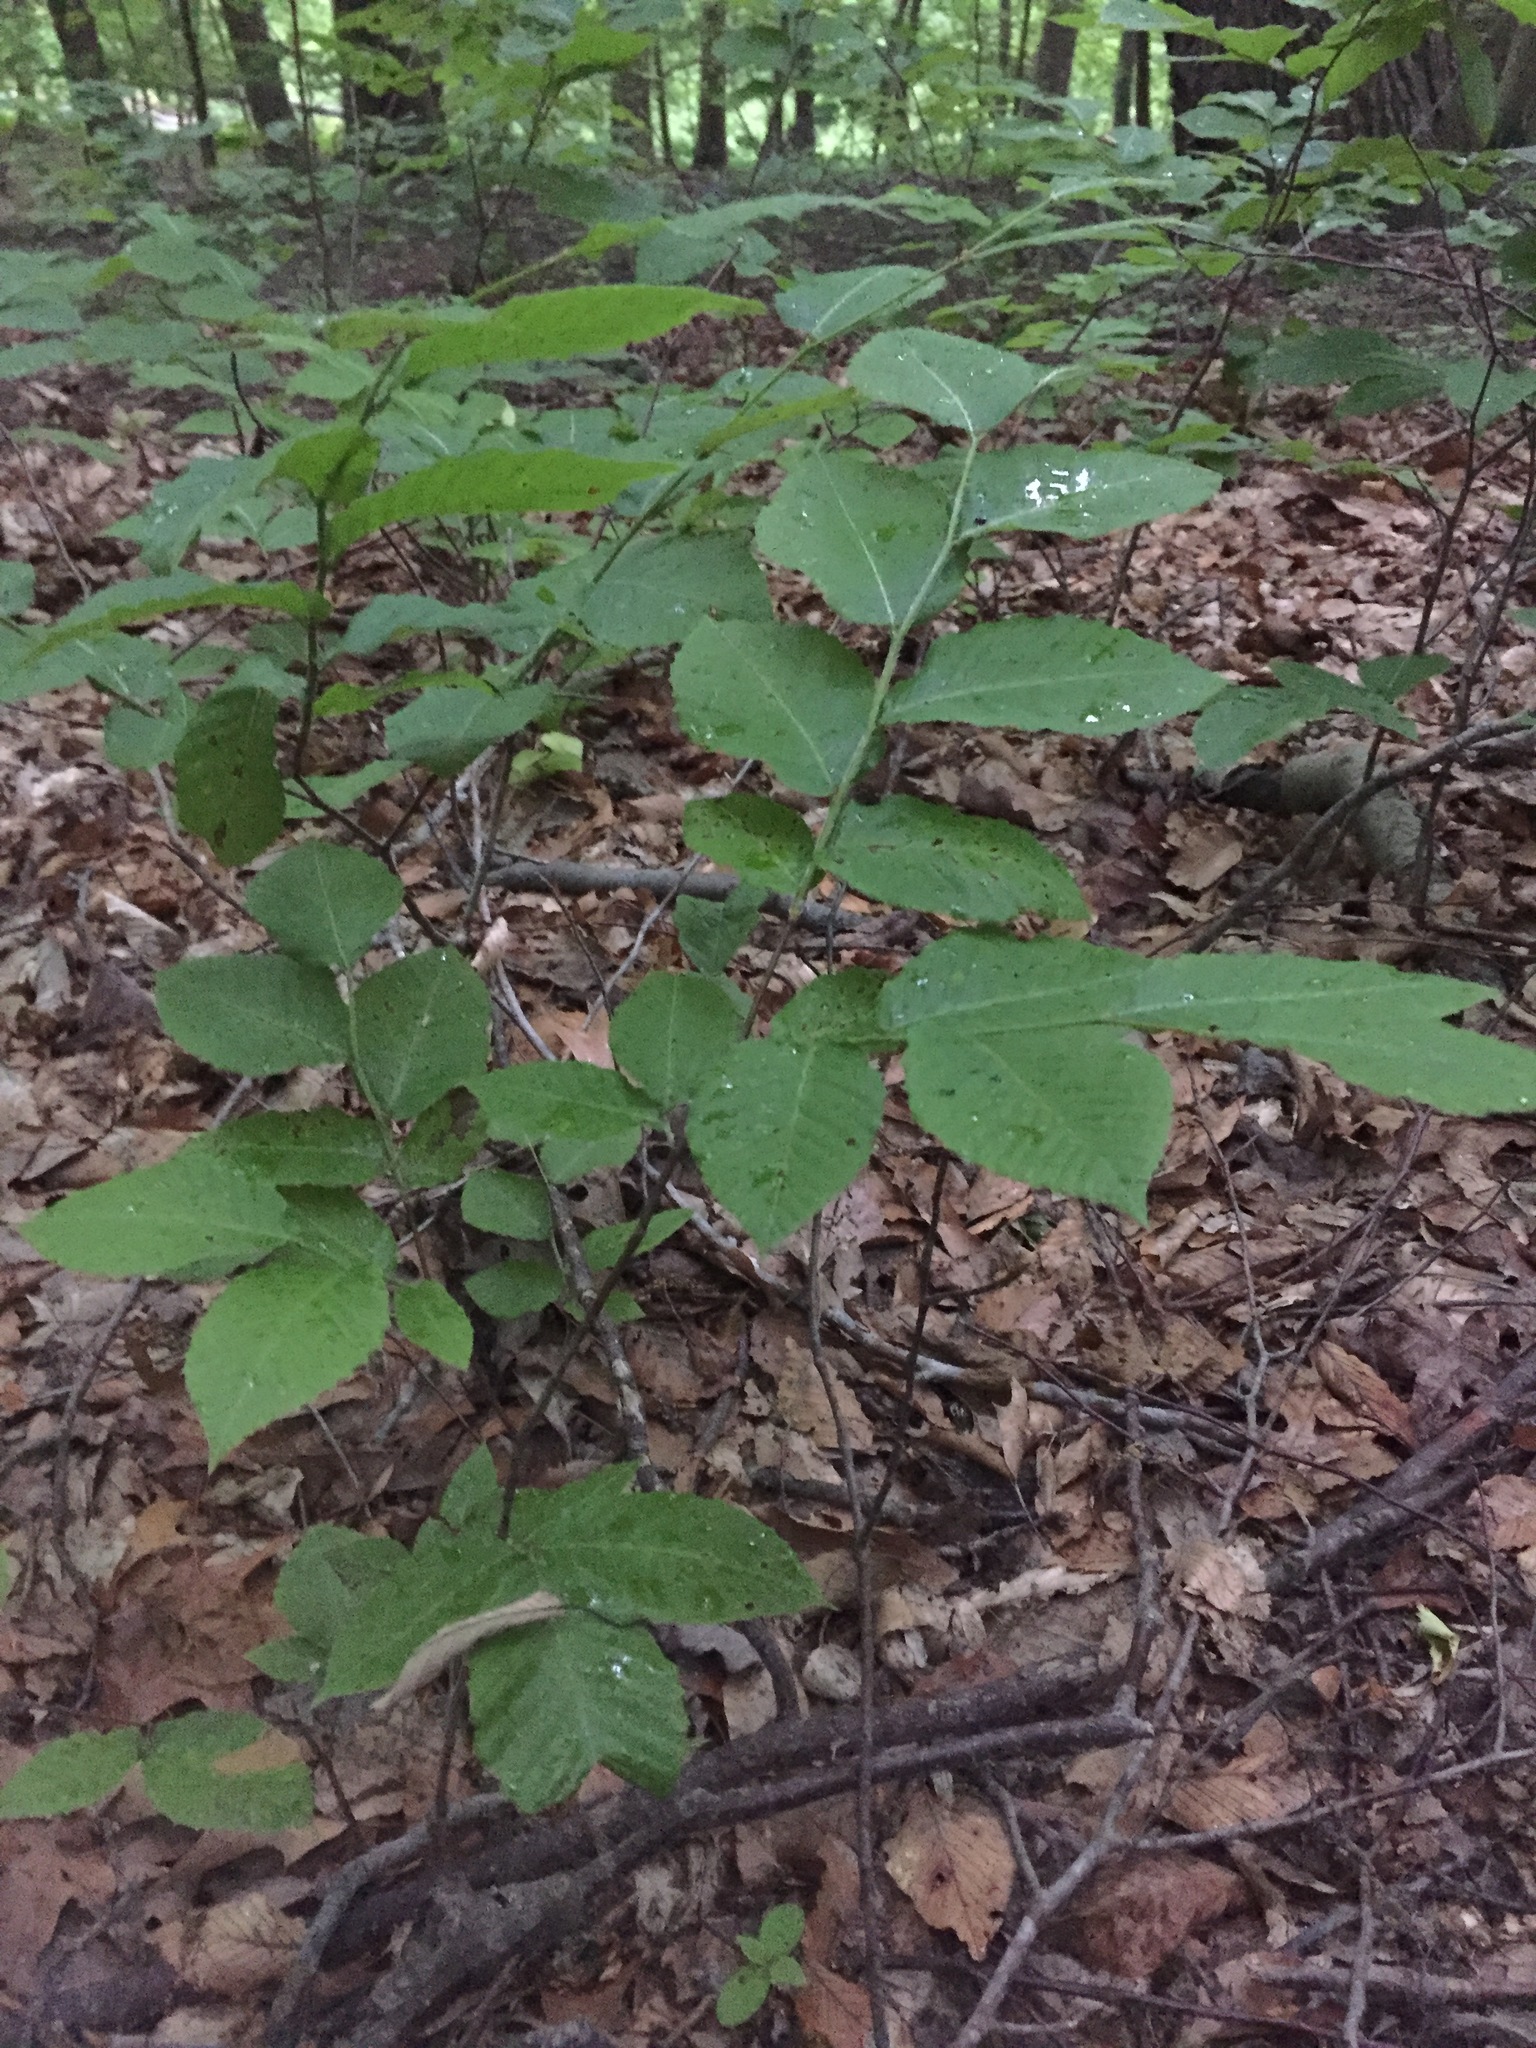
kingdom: Plantae
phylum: Tracheophyta
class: Magnoliopsida
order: Fagales
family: Fagaceae
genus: Fagus
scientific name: Fagus grandifolia
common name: American beech
